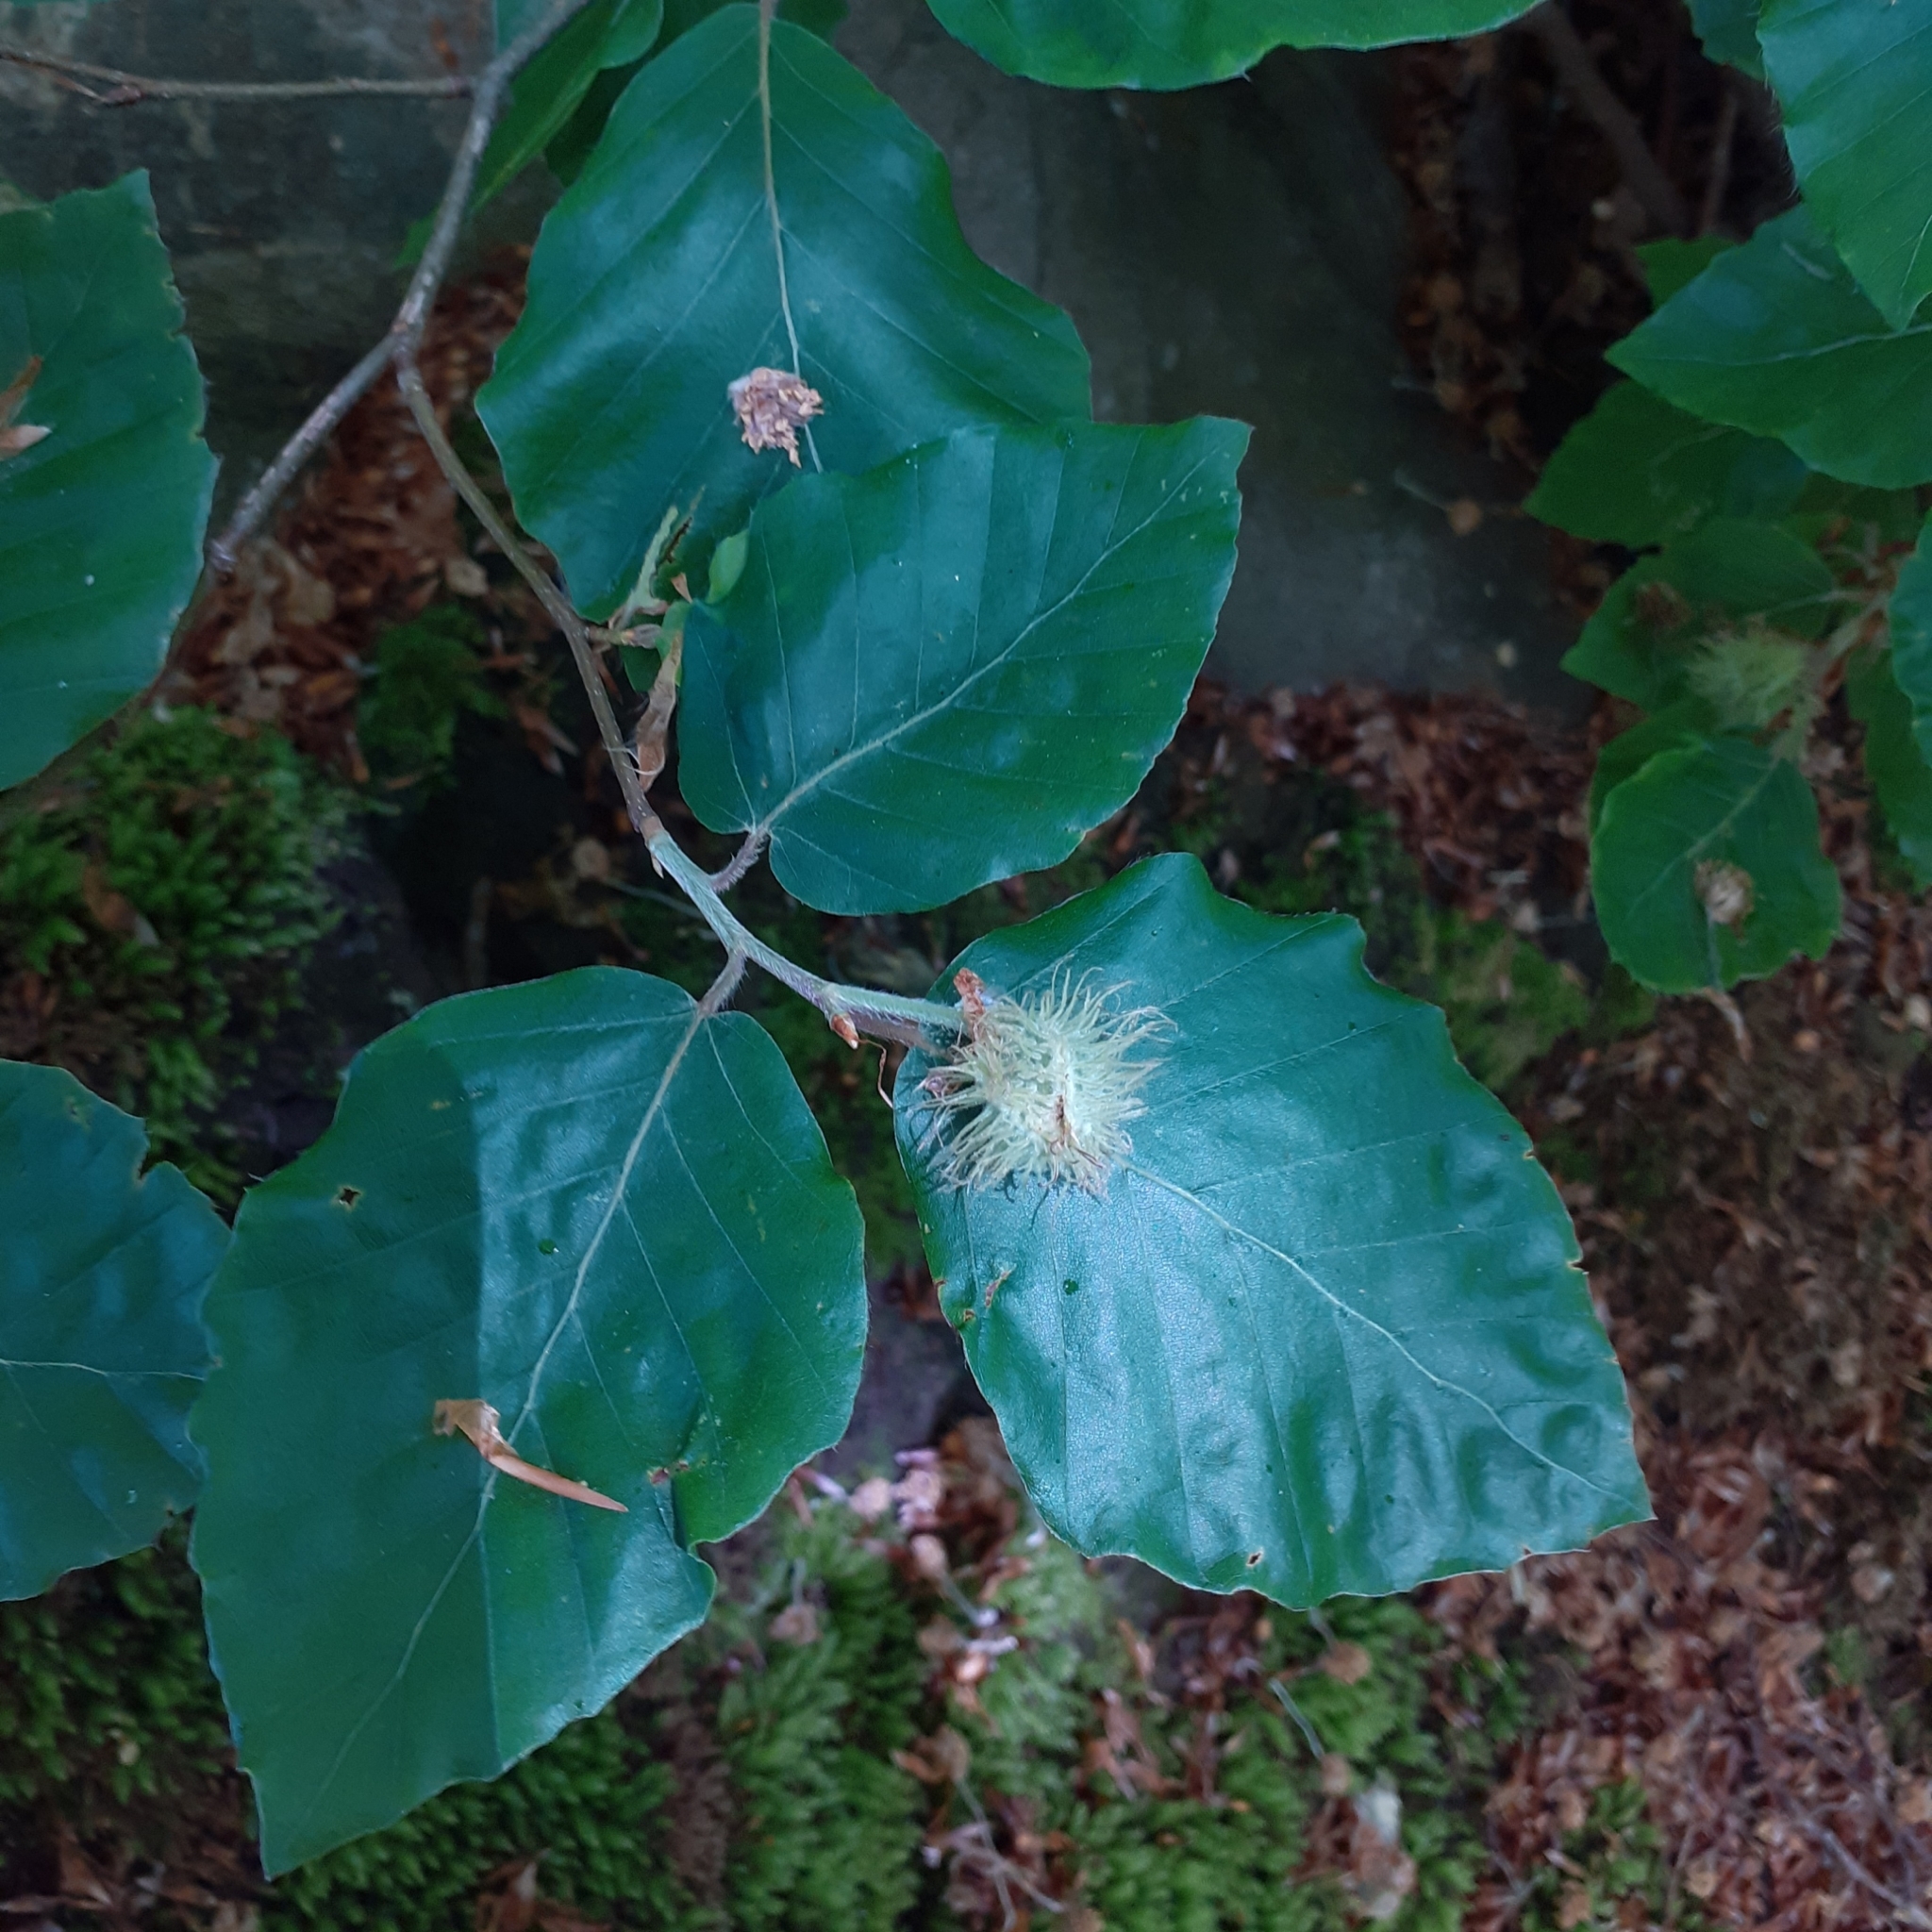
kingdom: Plantae
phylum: Tracheophyta
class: Magnoliopsida
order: Fagales
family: Fagaceae
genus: Fagus
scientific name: Fagus sylvatica
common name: Beech
